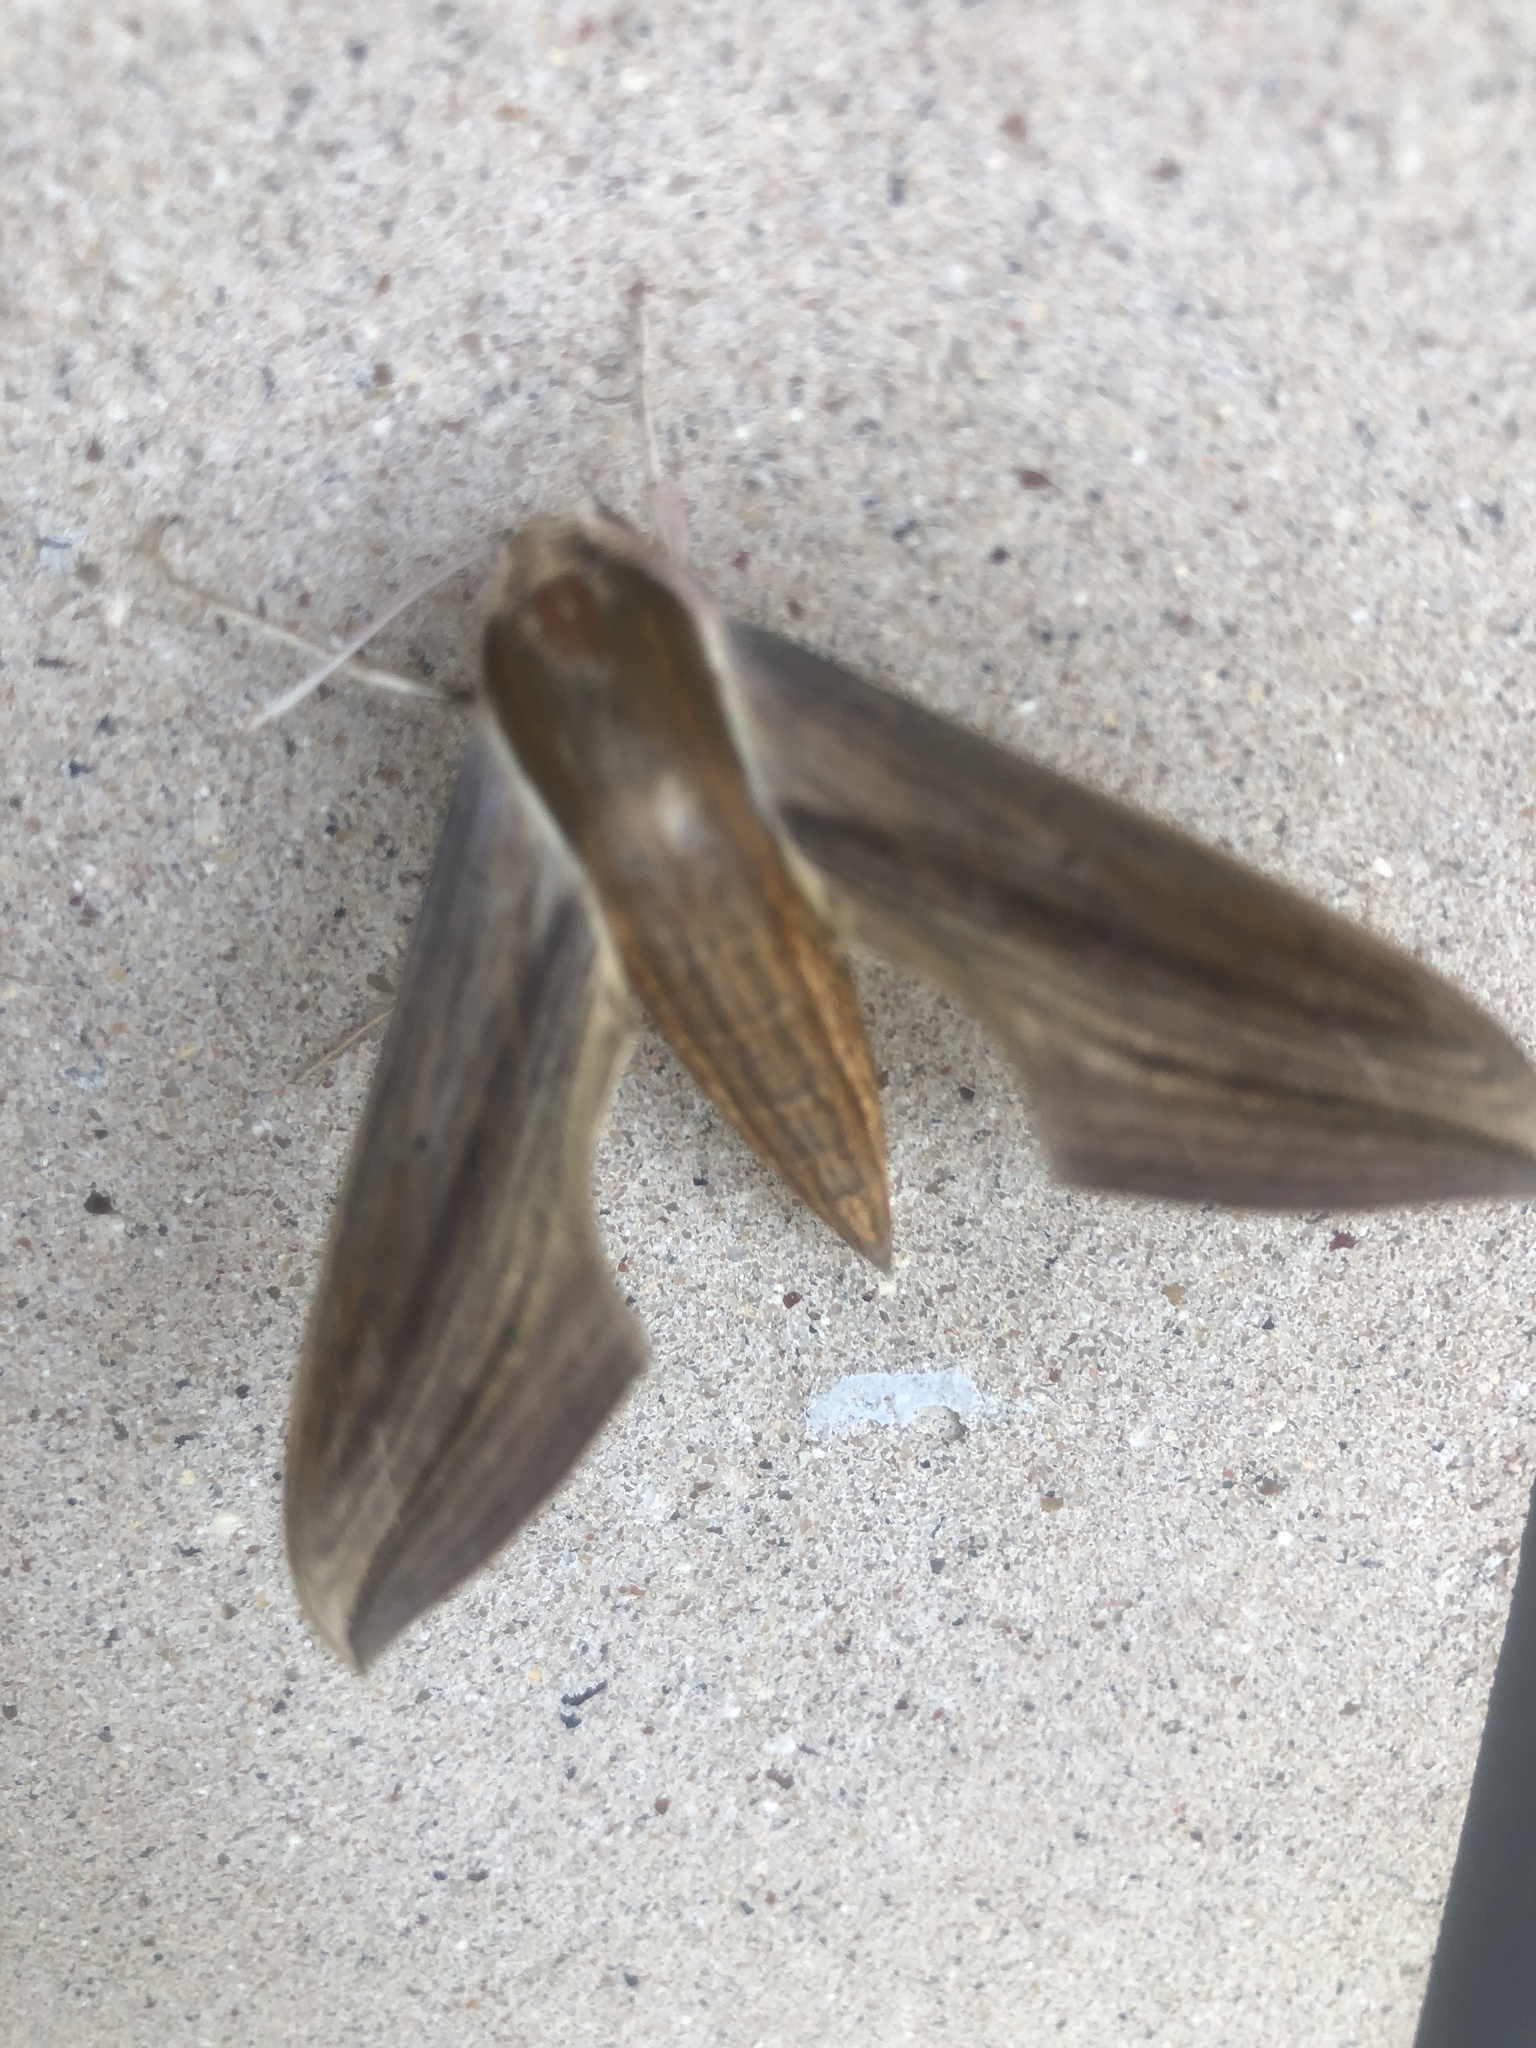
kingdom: Animalia
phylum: Arthropoda
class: Insecta
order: Lepidoptera
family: Sphingidae
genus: Xylophanes
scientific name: Xylophanes tersa
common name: Tersa sphinx
